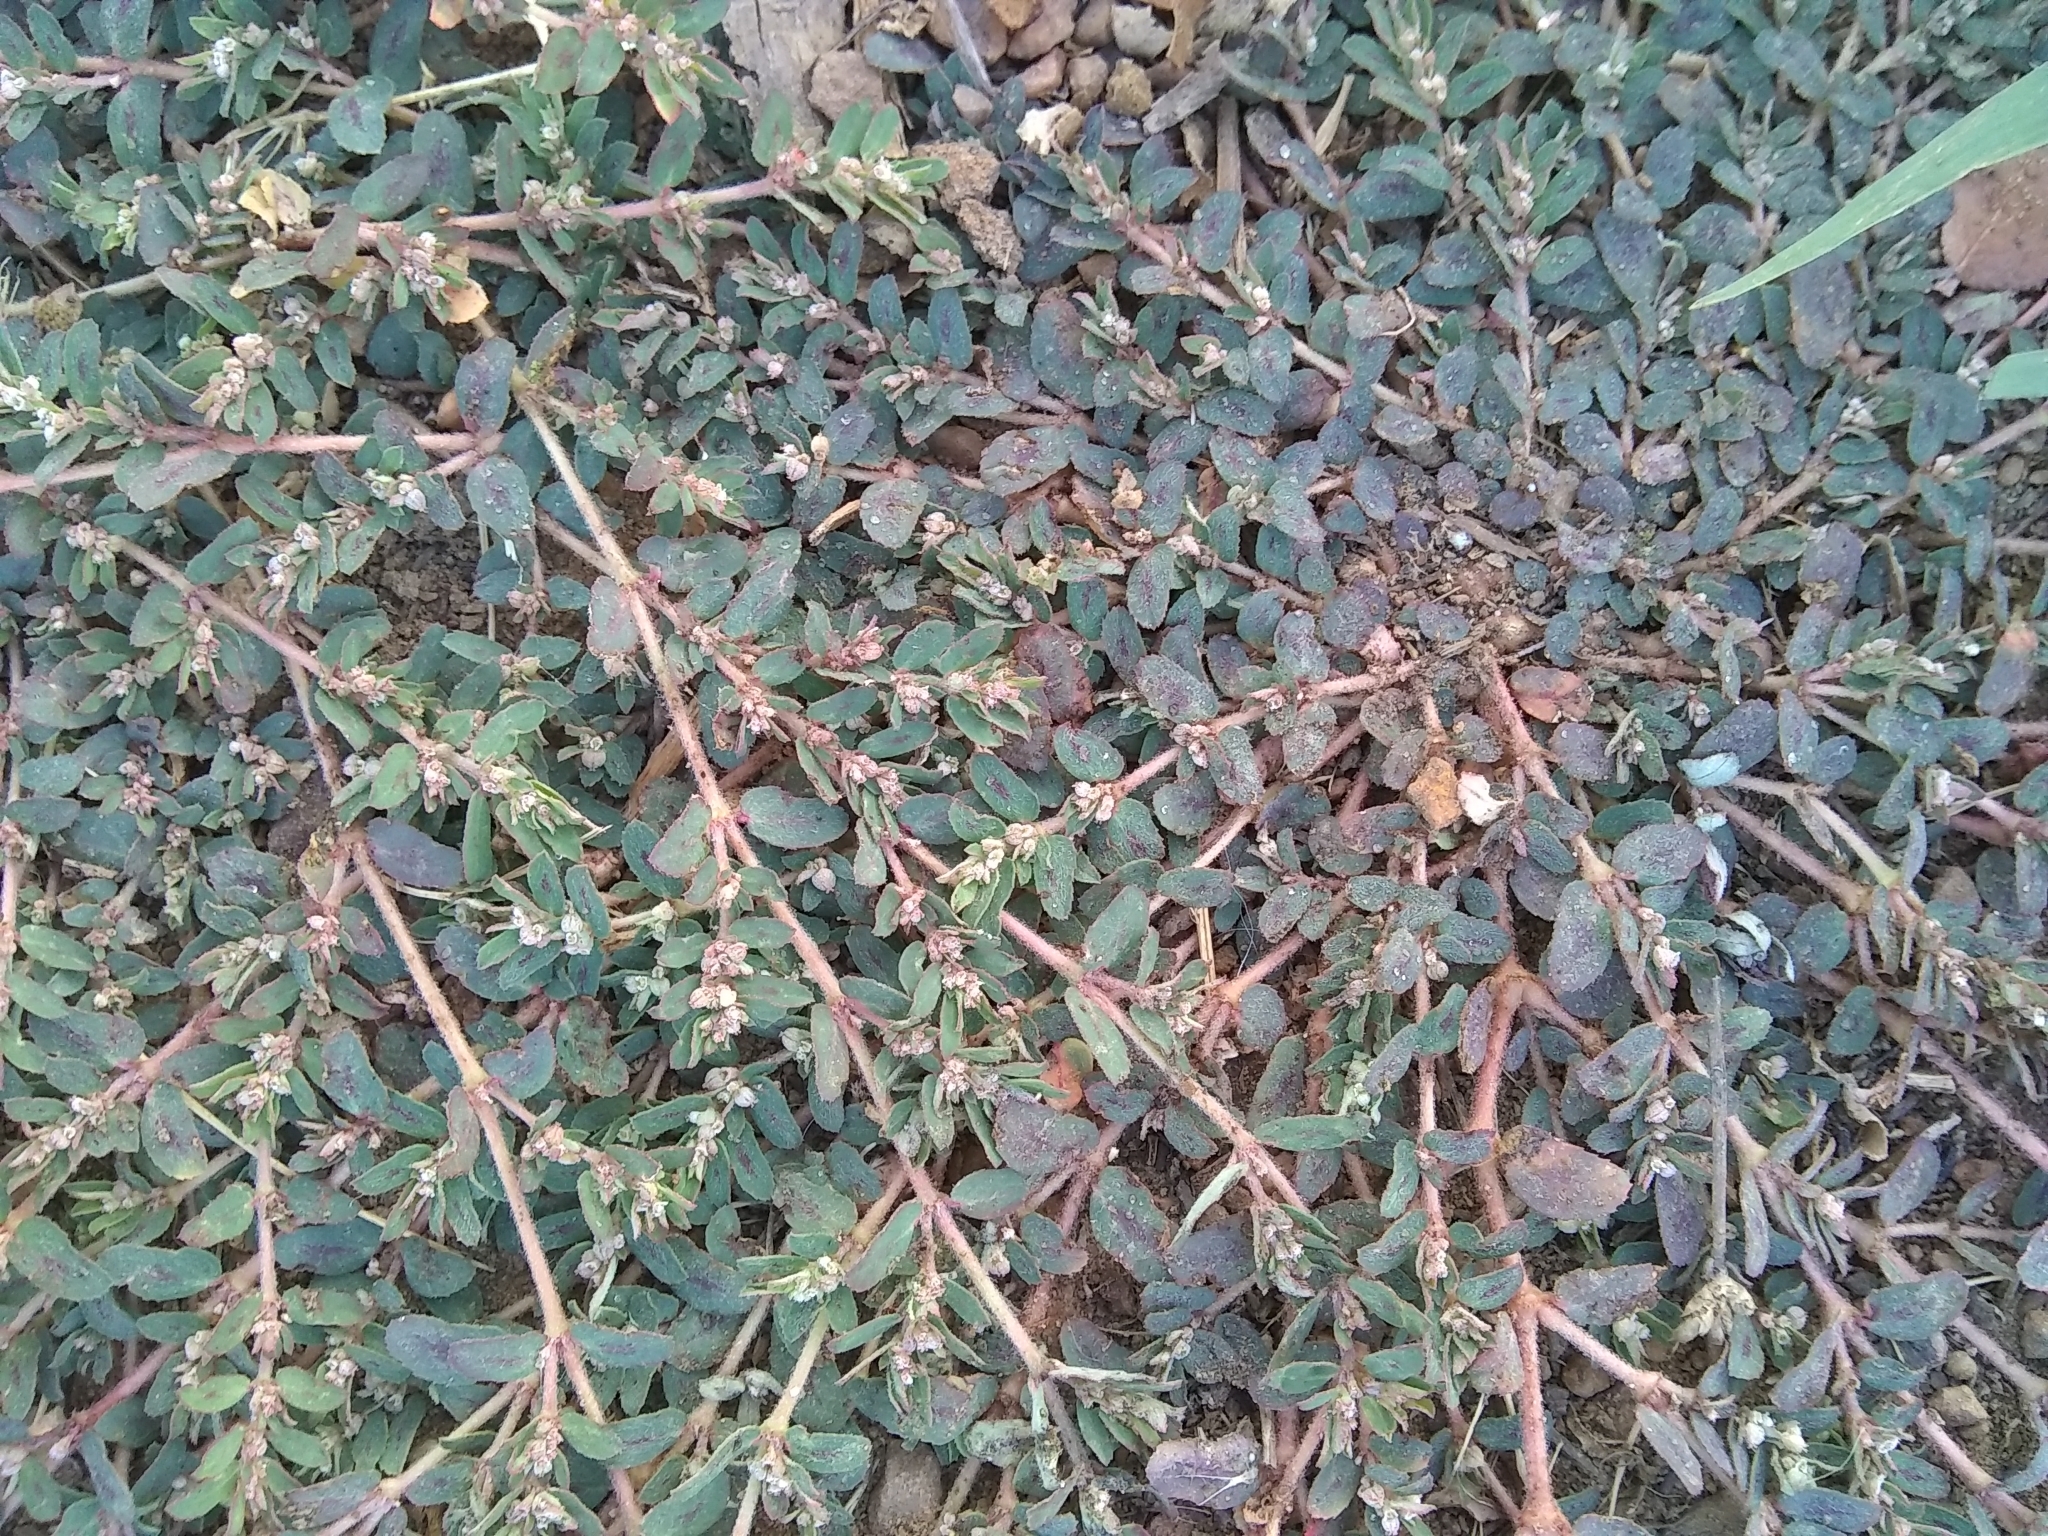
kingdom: Plantae
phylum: Tracheophyta
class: Magnoliopsida
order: Malpighiales
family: Euphorbiaceae
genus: Euphorbia
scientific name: Euphorbia maculata
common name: Spotted spurge
